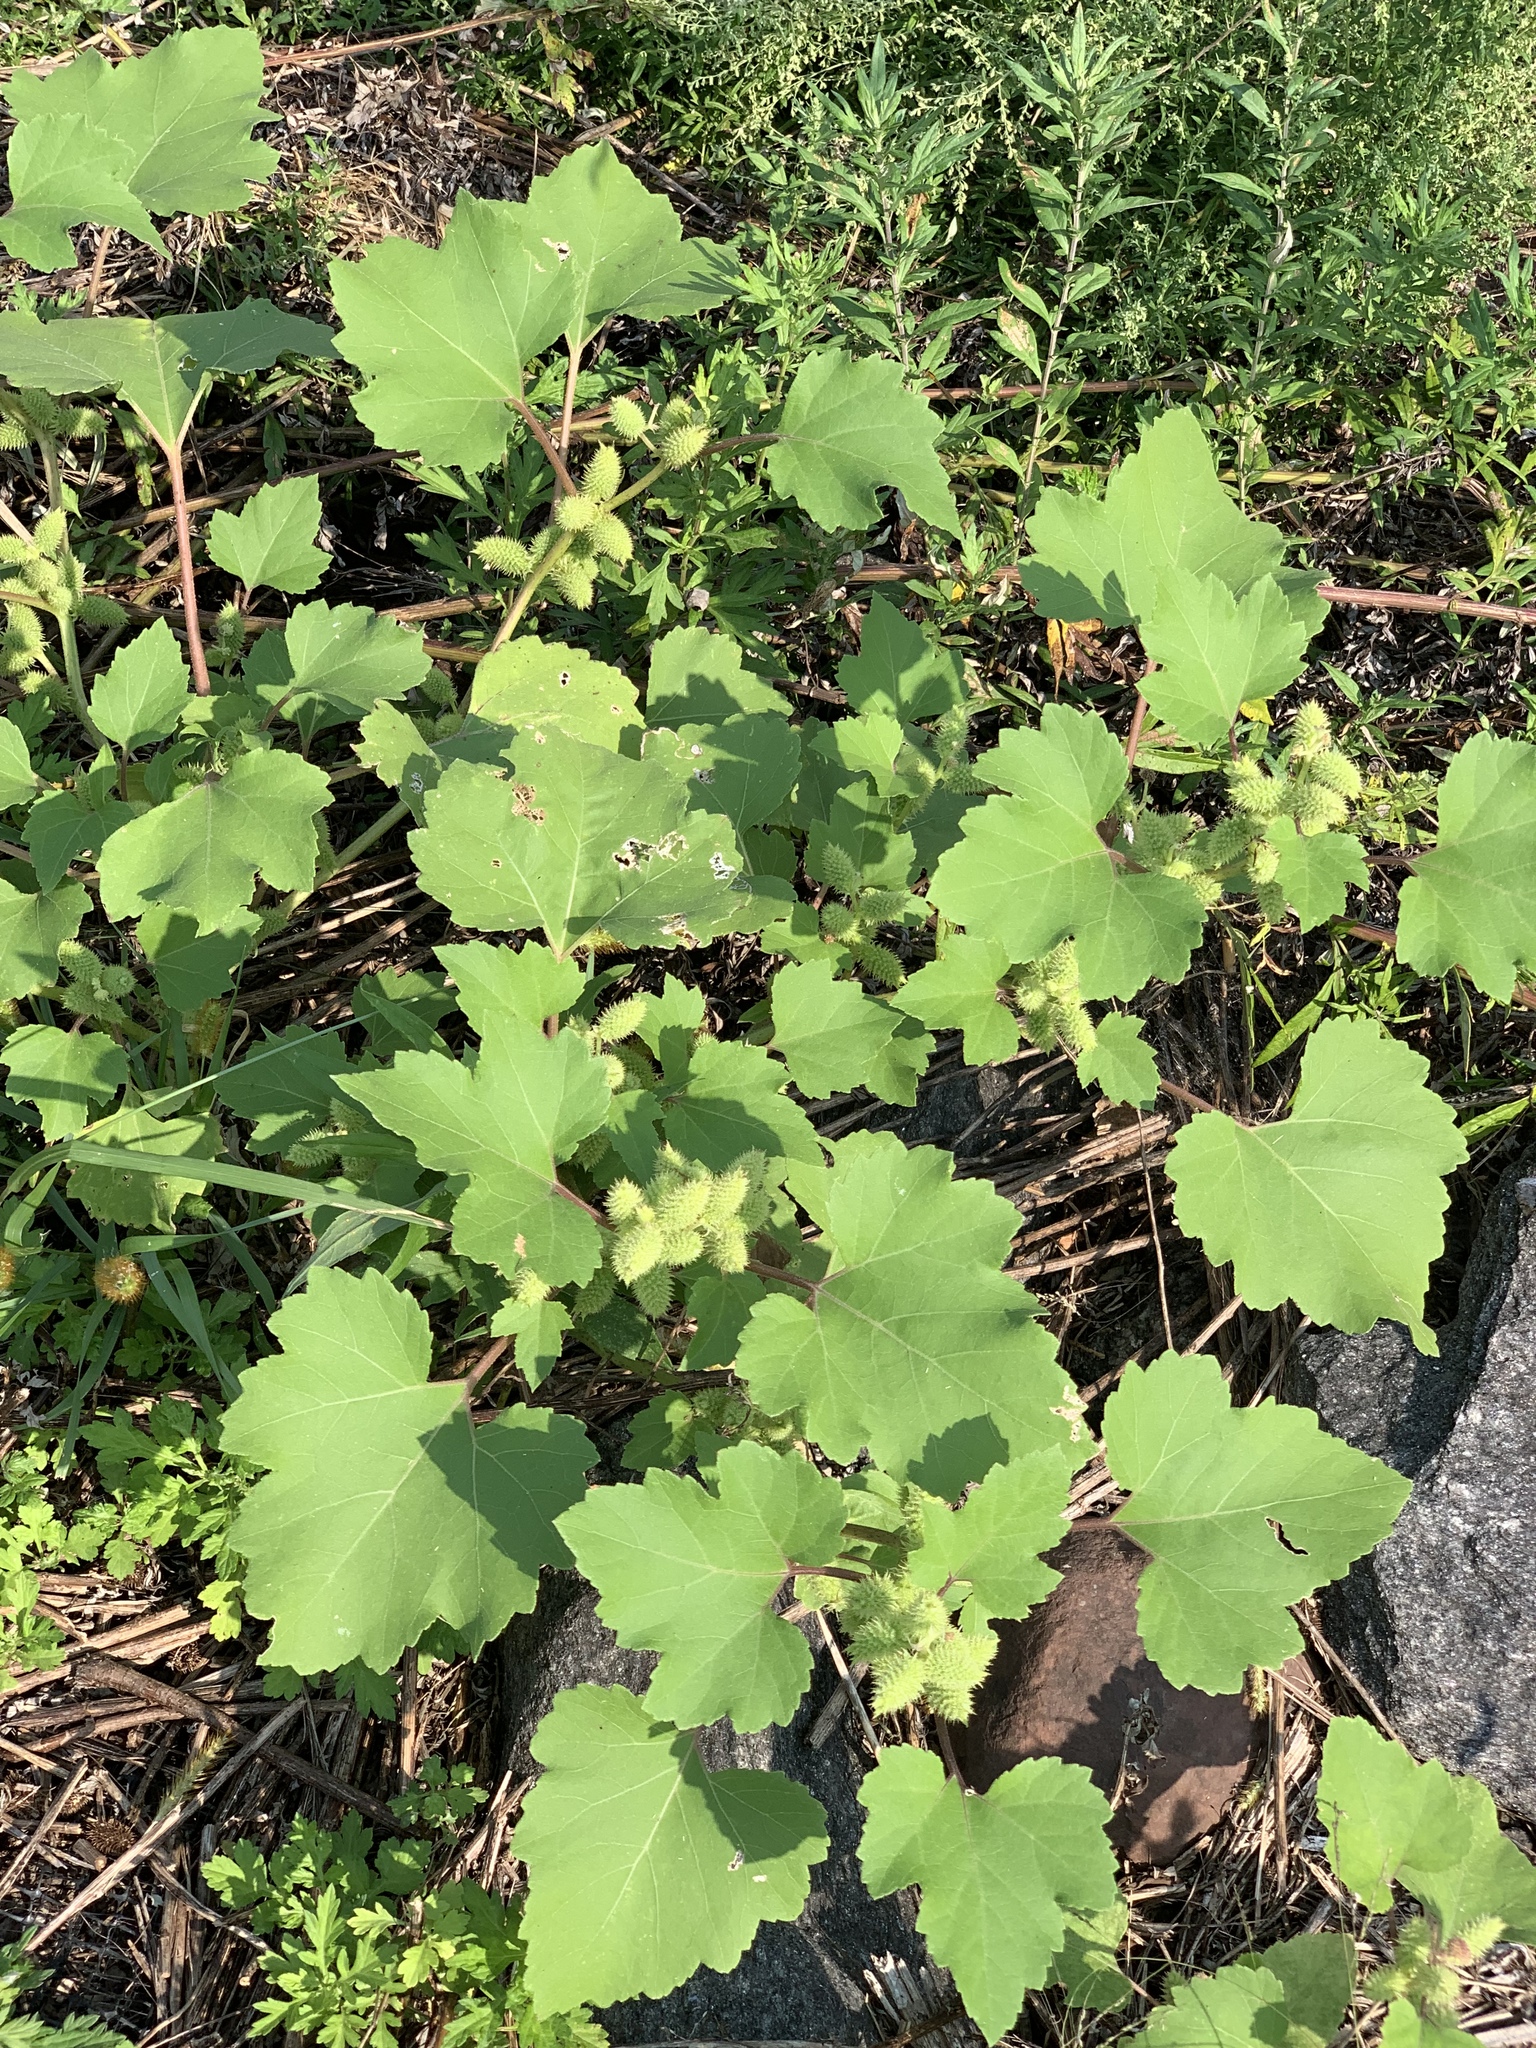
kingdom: Plantae
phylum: Tracheophyta
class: Magnoliopsida
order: Asterales
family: Asteraceae
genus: Xanthium
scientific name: Xanthium strumarium
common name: Rough cocklebur
